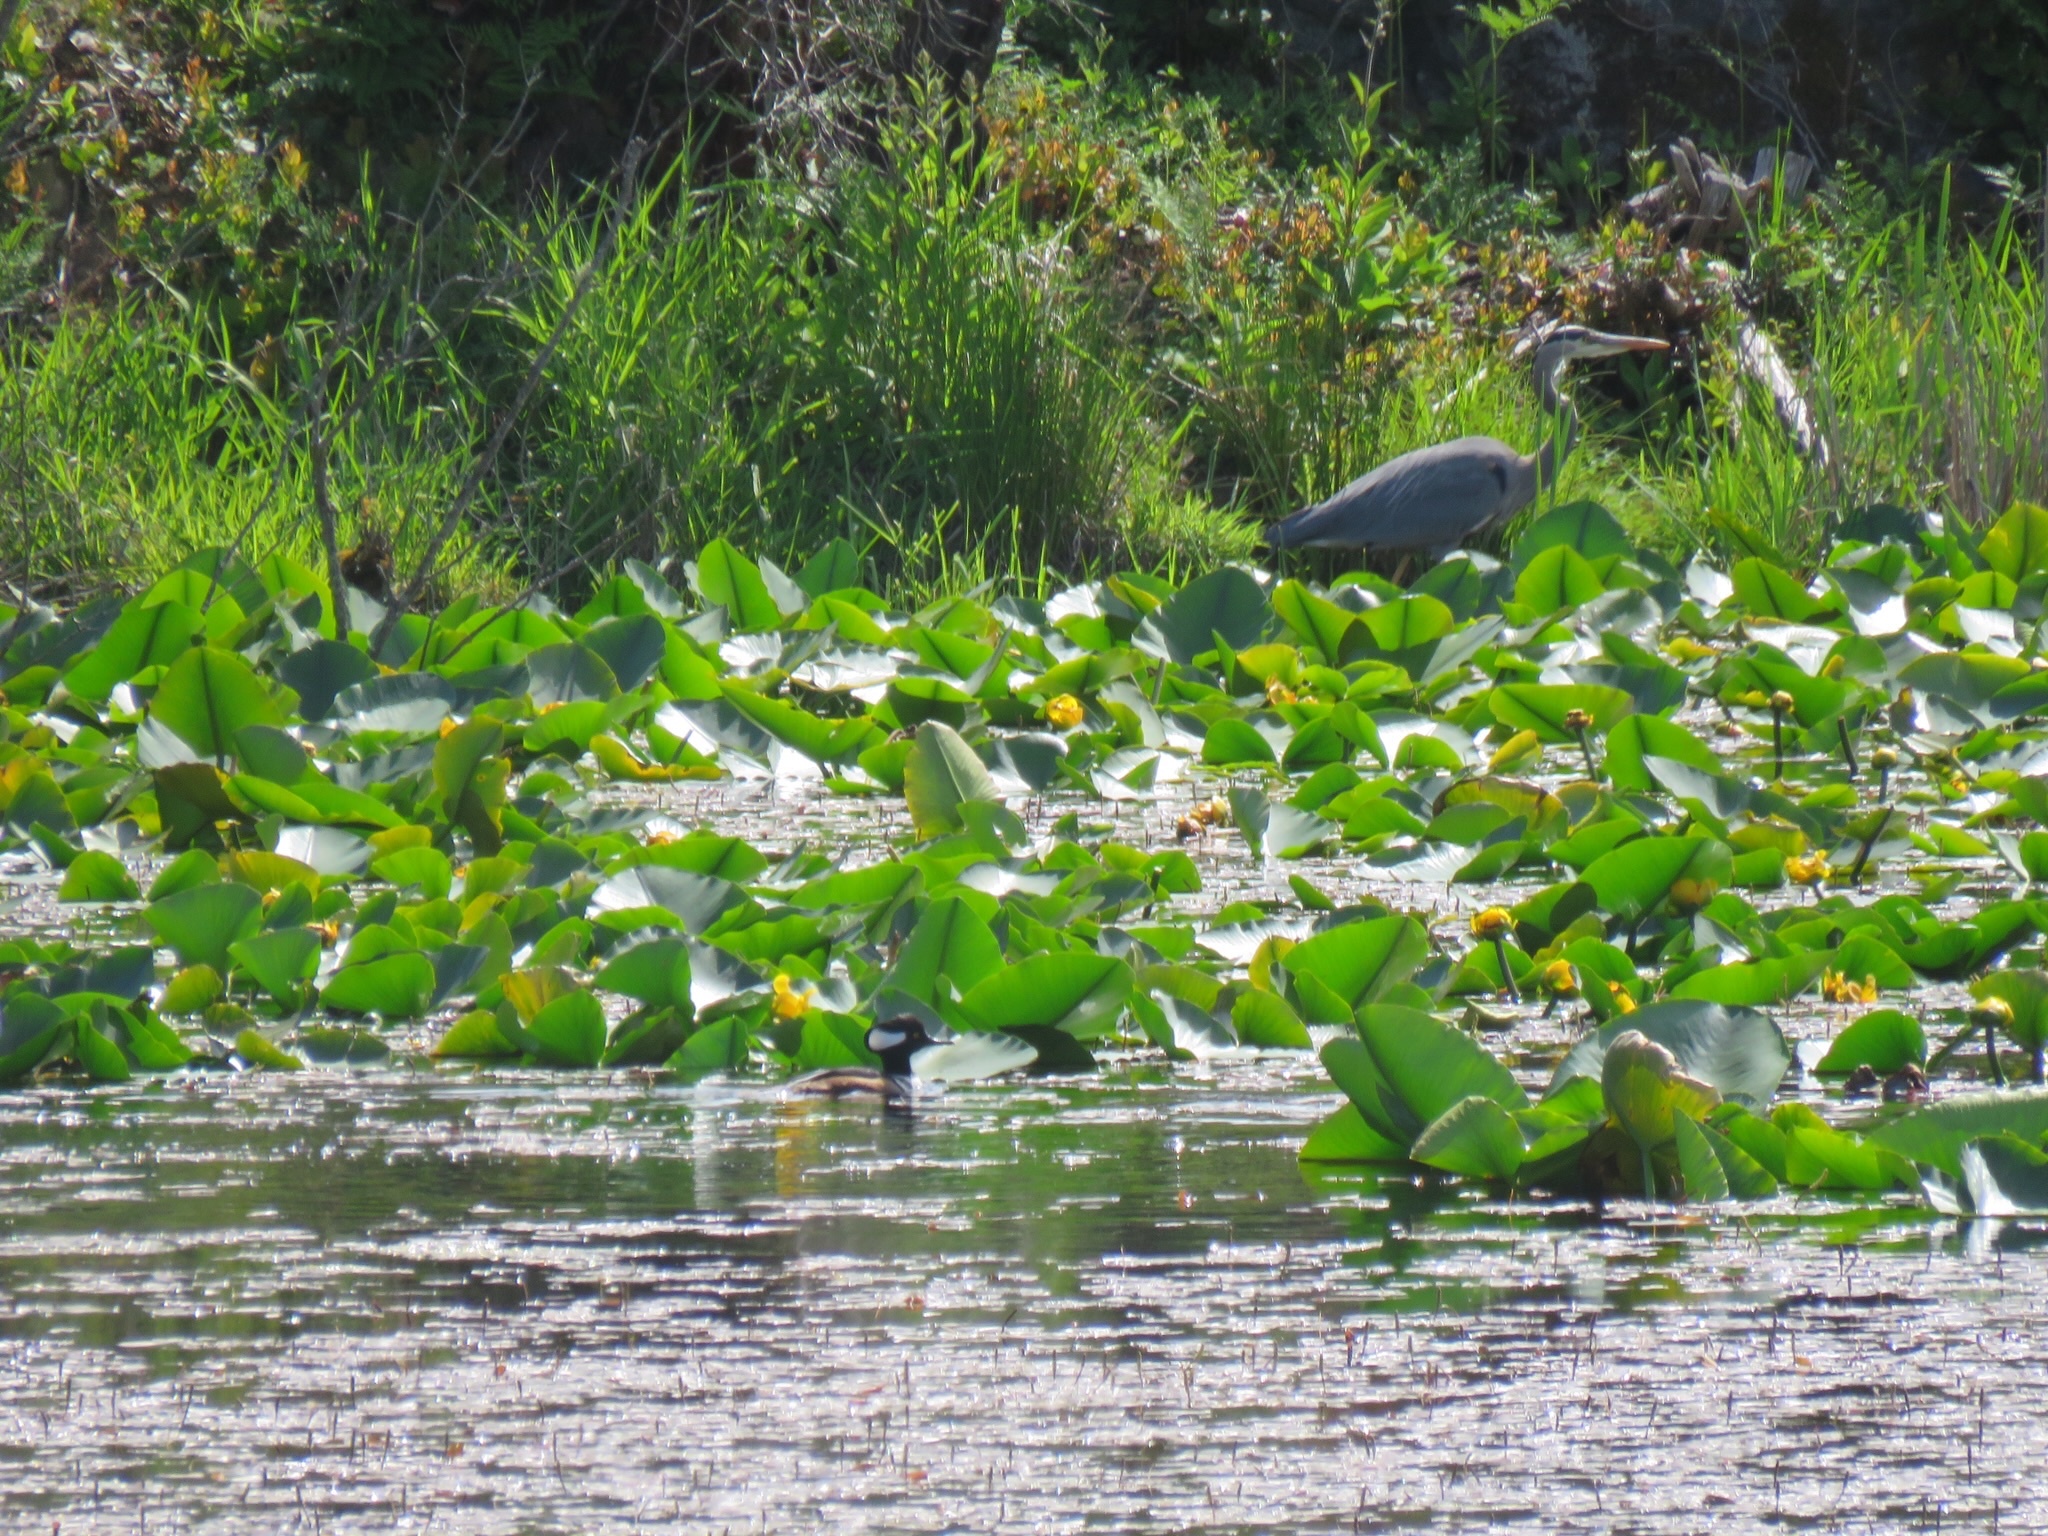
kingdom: Animalia
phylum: Chordata
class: Aves
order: Anseriformes
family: Anatidae
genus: Lophodytes
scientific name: Lophodytes cucullatus
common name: Hooded merganser
